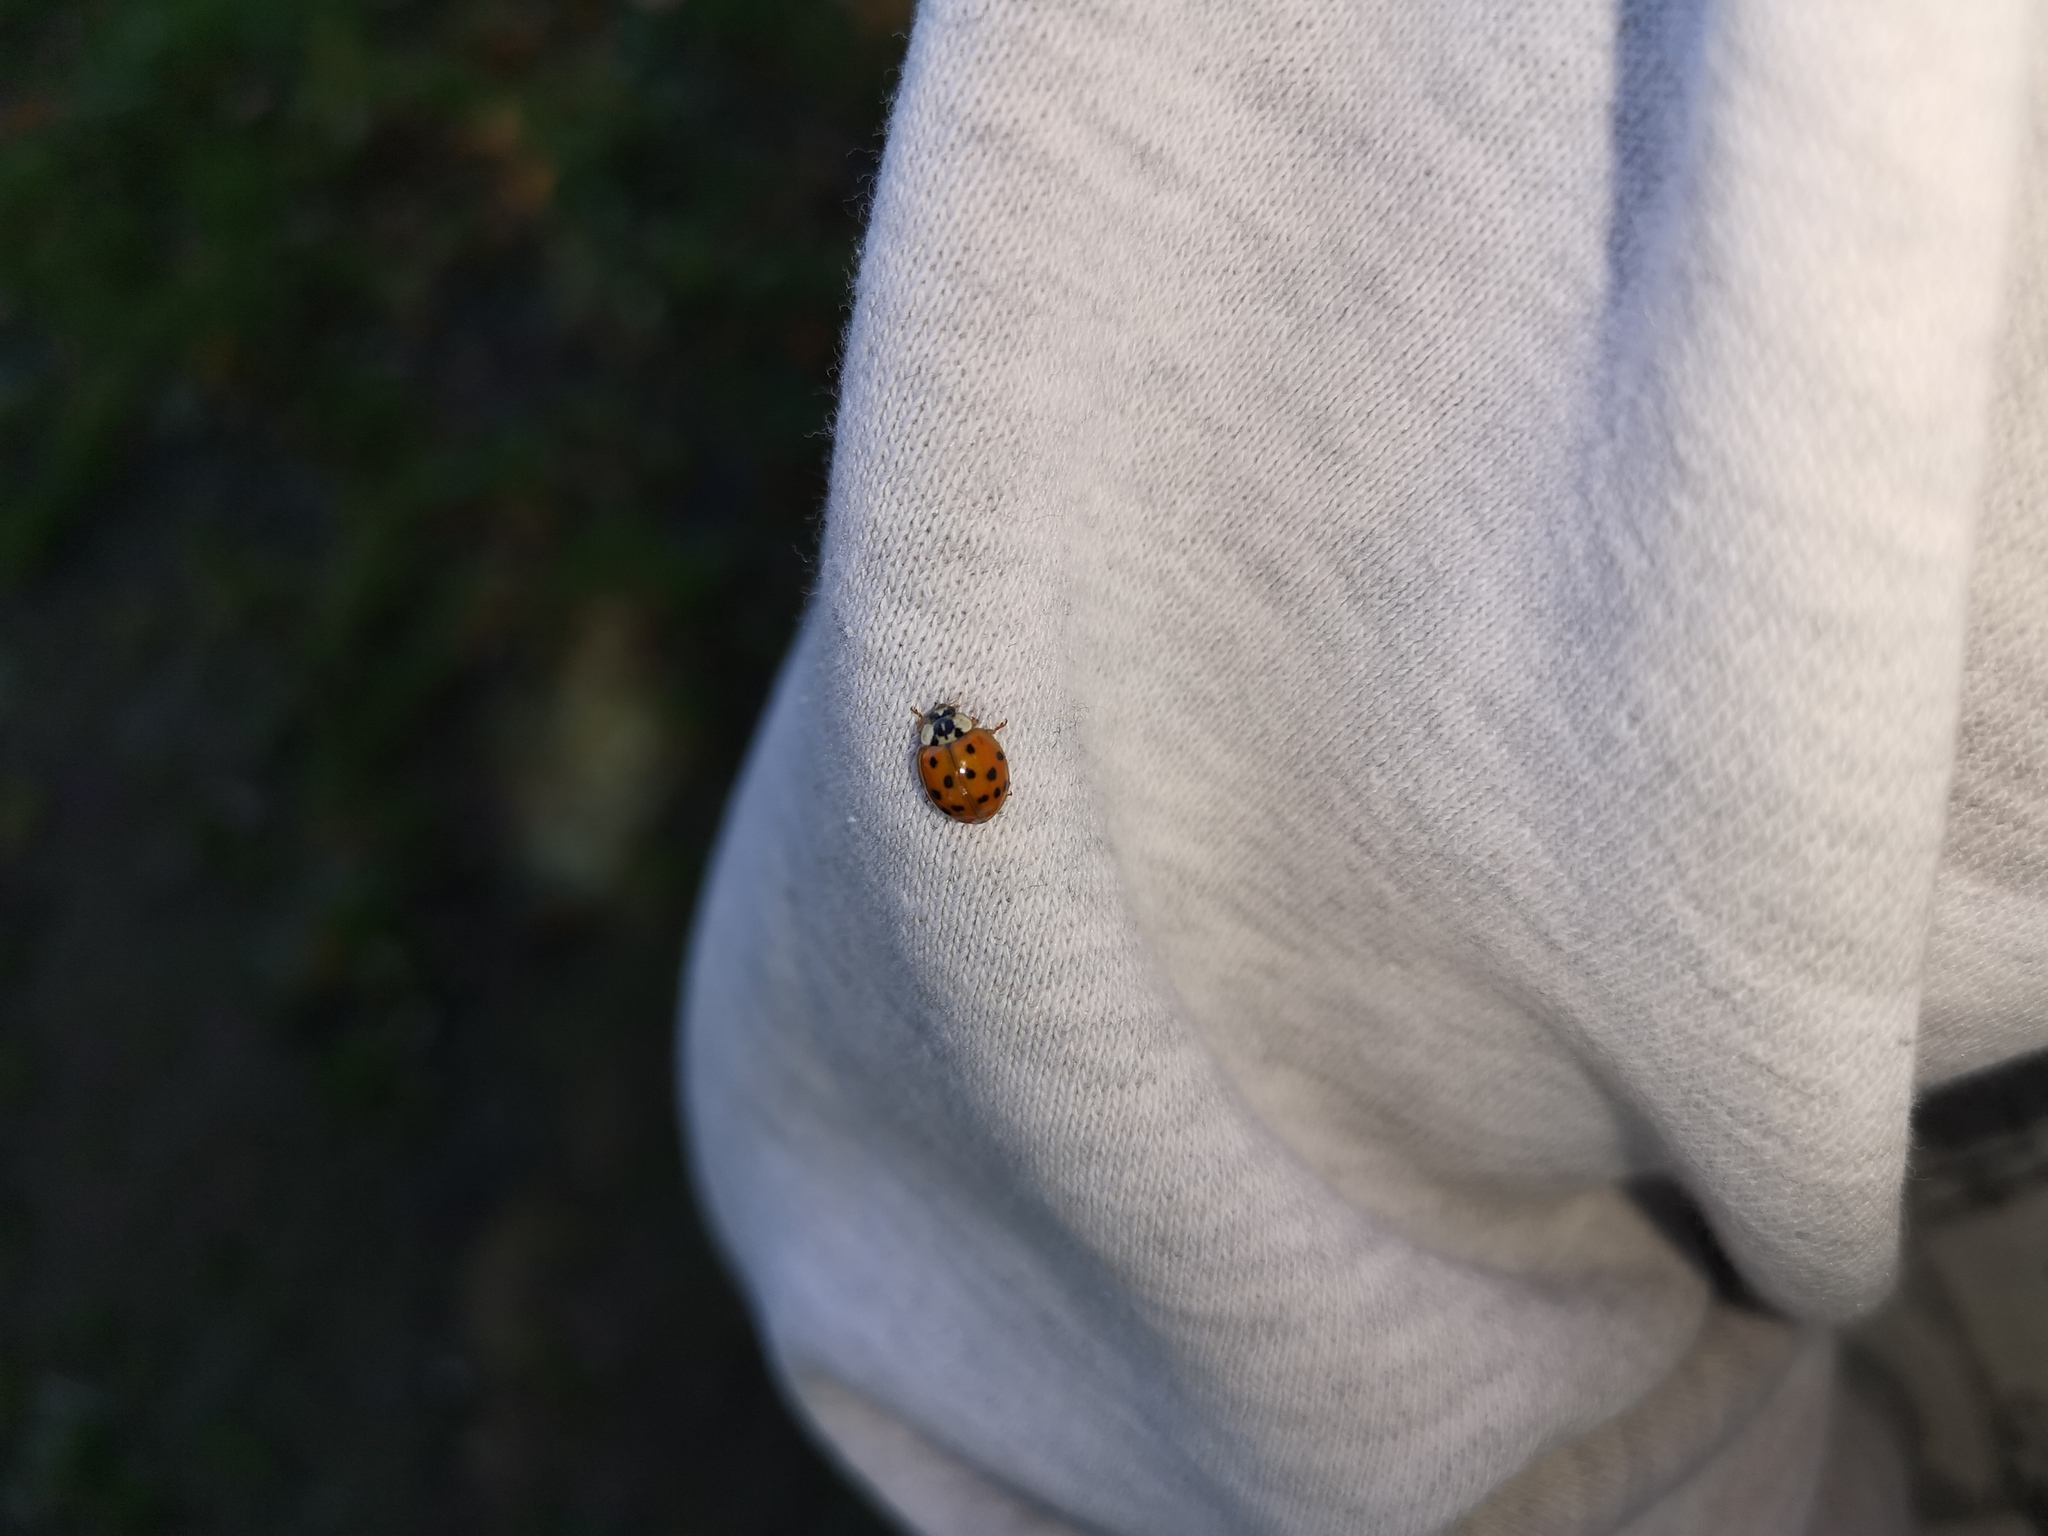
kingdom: Animalia
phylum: Arthropoda
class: Insecta
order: Coleoptera
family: Coccinellidae
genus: Harmonia
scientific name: Harmonia axyridis
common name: Harlequin ladybird
